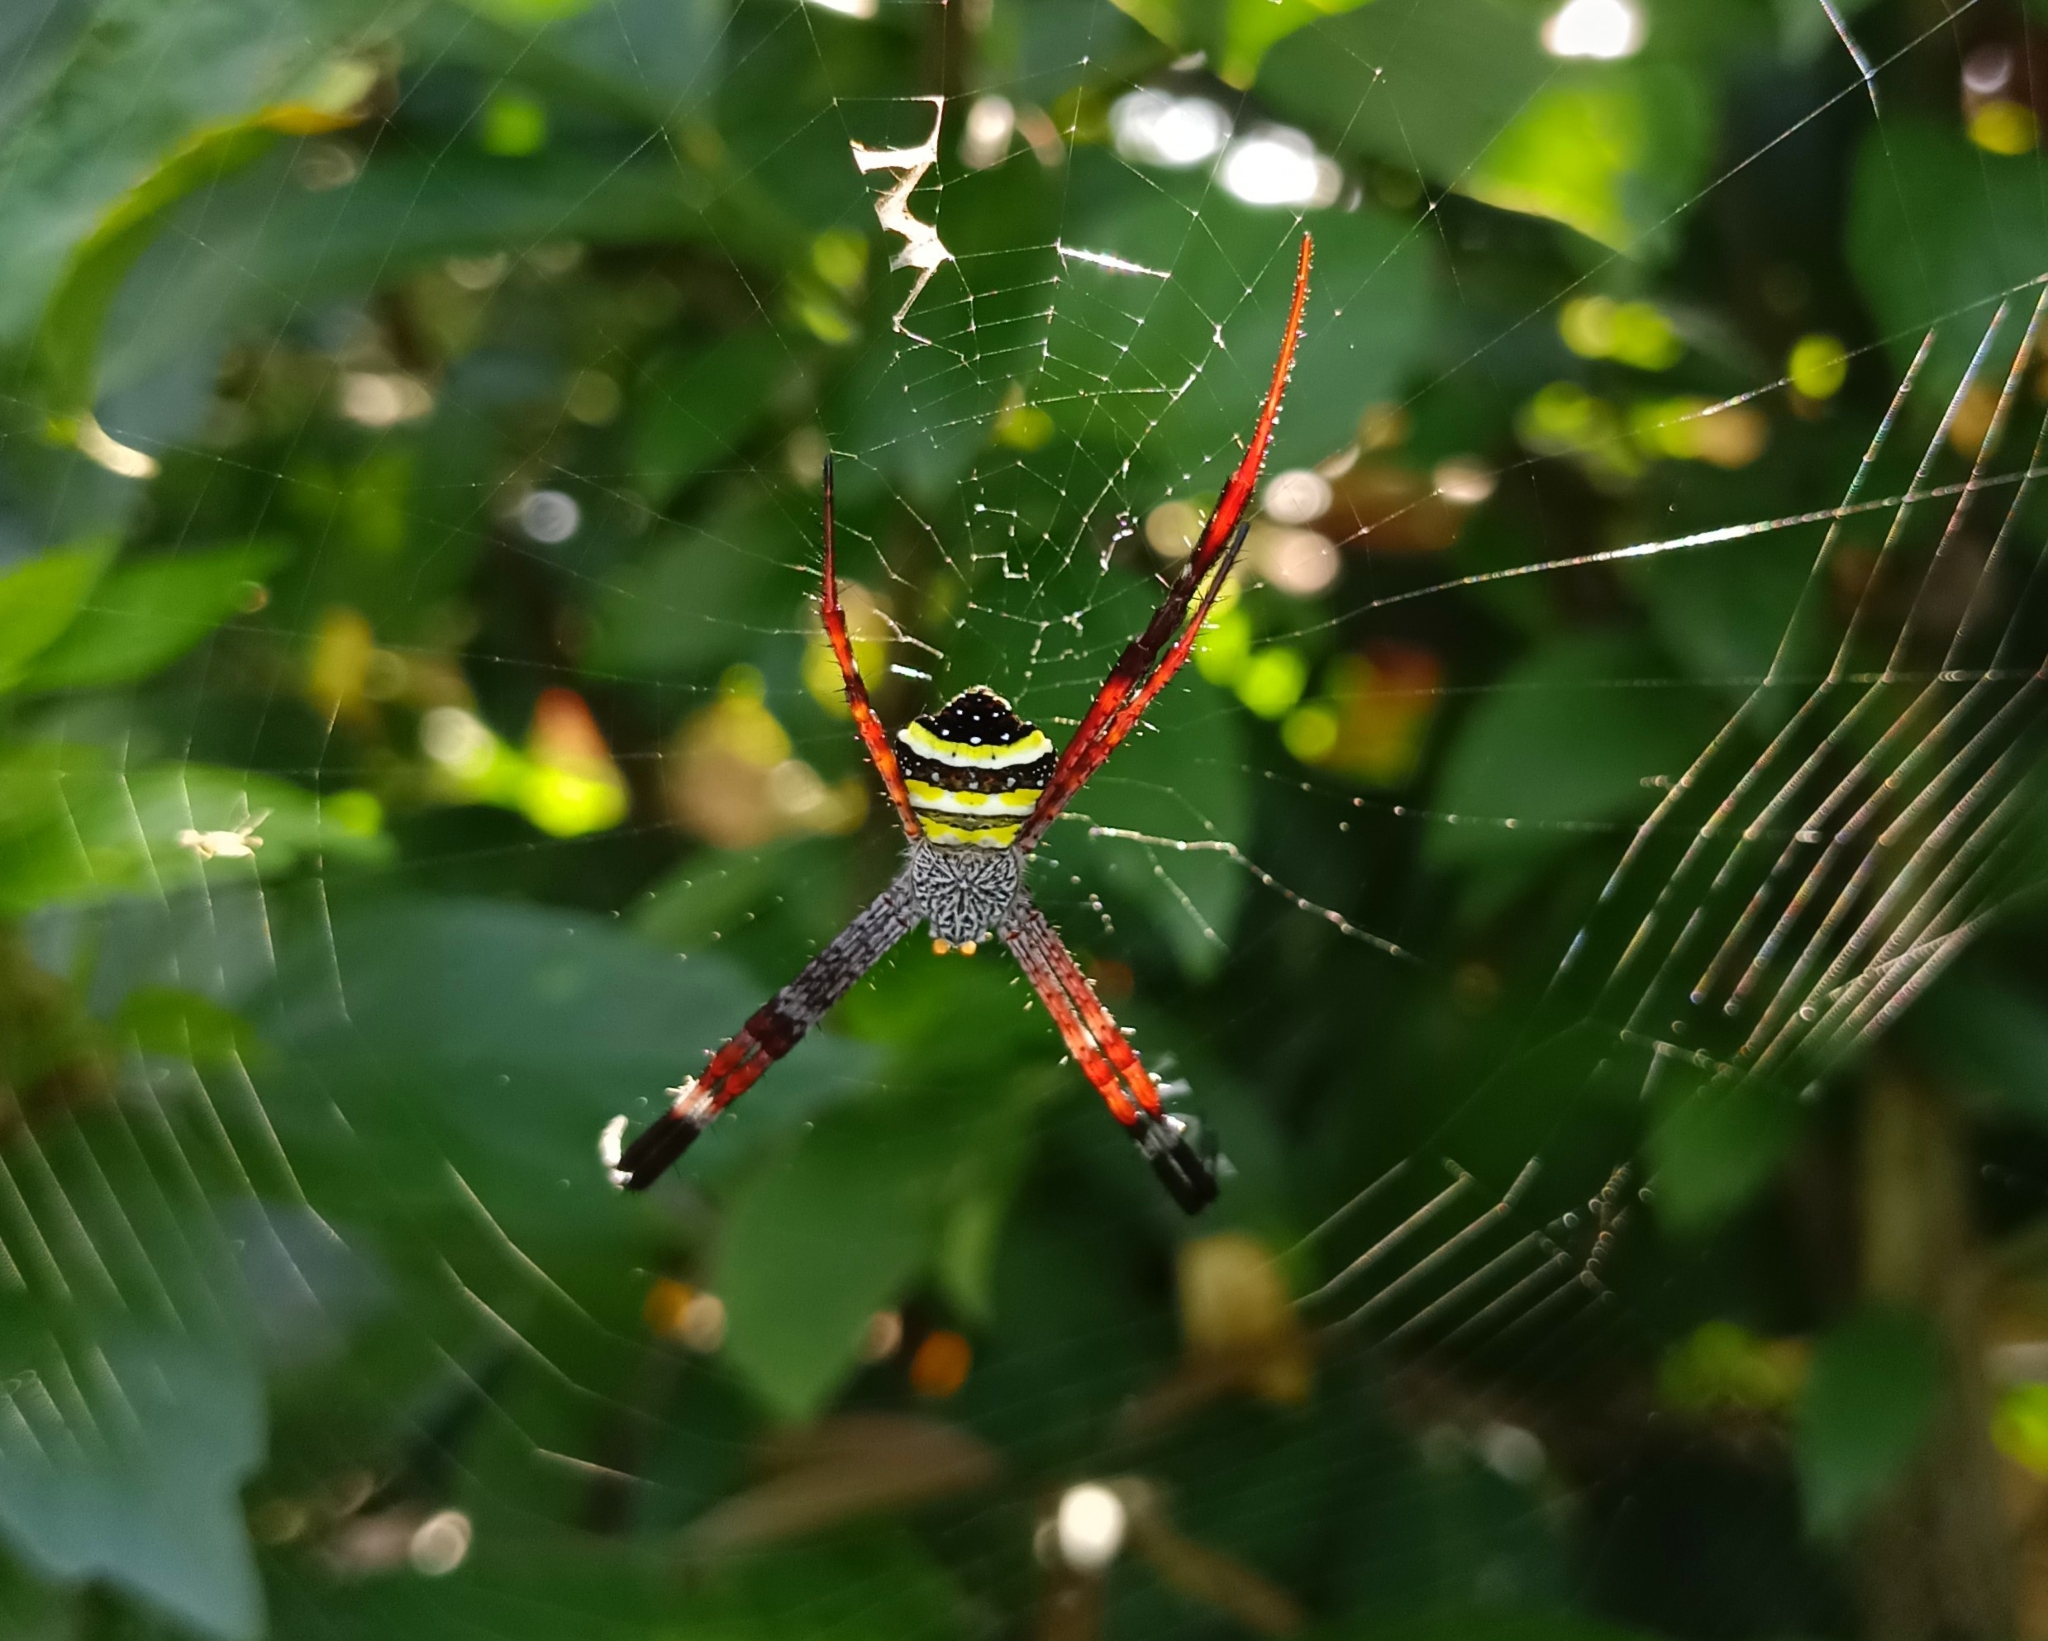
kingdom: Animalia
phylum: Arthropoda
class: Arachnida
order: Araneae
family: Araneidae
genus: Argiope
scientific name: Argiope pulchella
